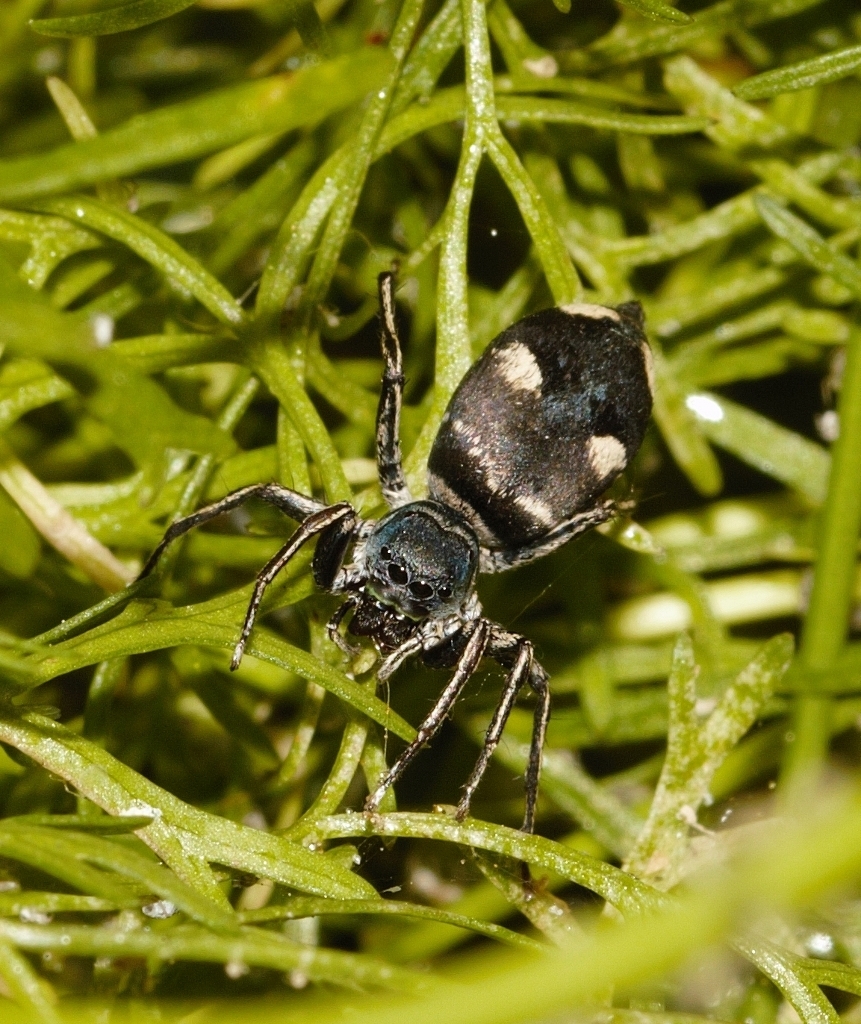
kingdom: Animalia
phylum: Arthropoda
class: Arachnida
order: Araneae
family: Salticidae
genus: Mexcala
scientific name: Mexcala quadrimaculata
